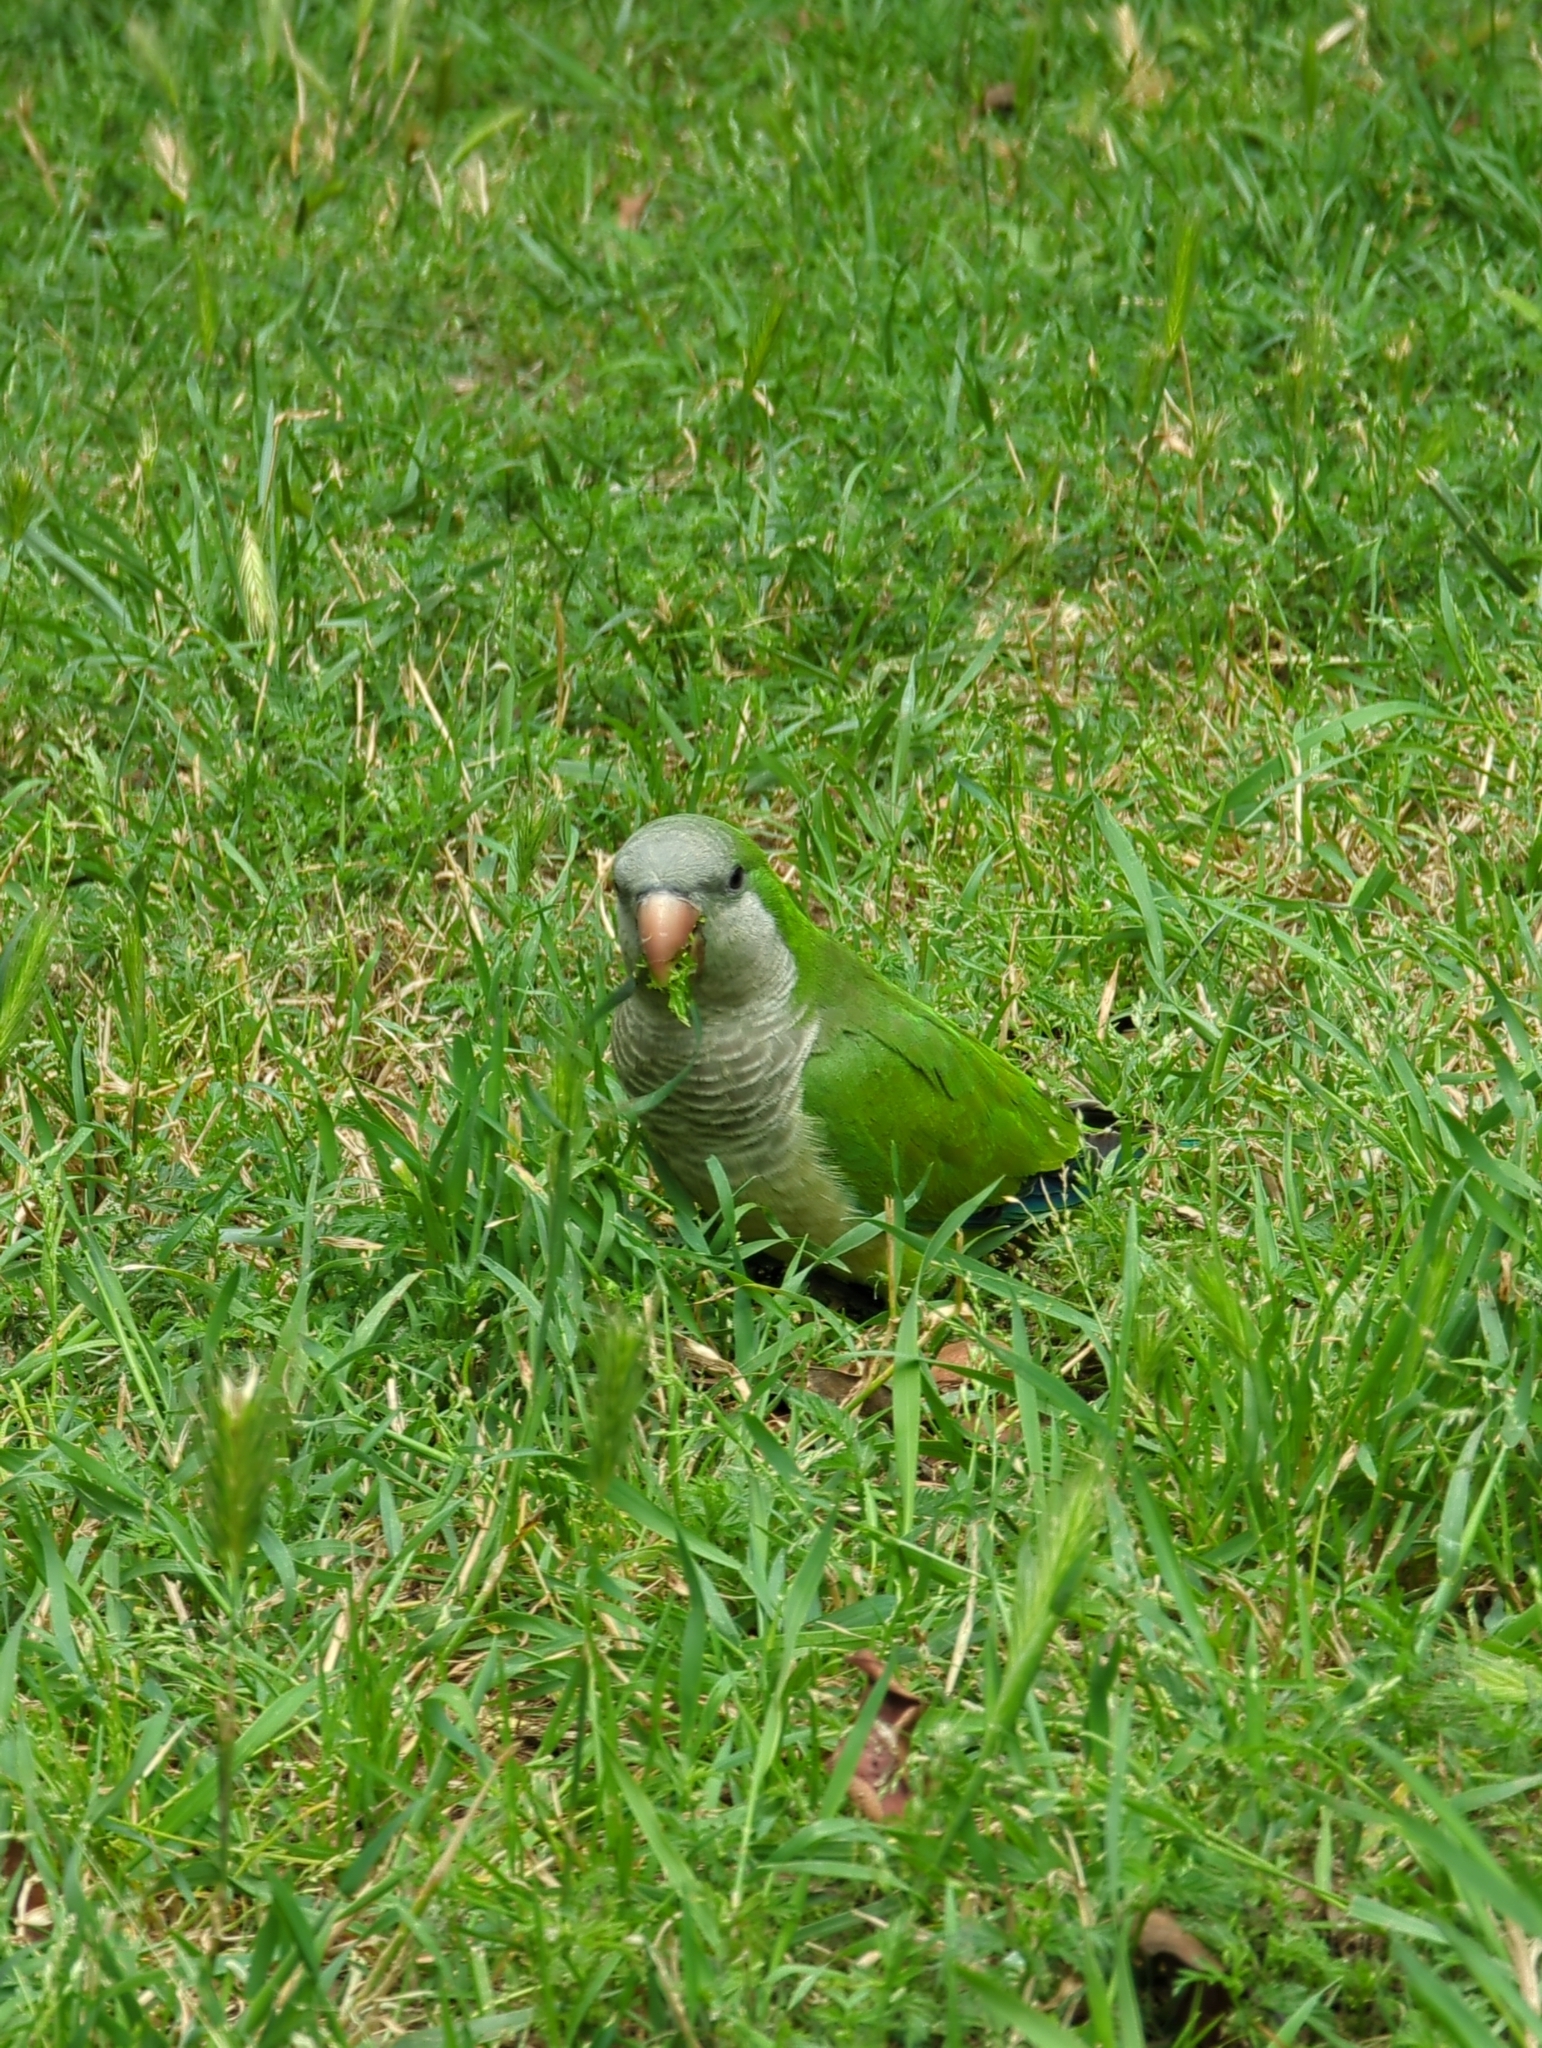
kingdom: Animalia
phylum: Chordata
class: Aves
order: Psittaciformes
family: Psittacidae
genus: Myiopsitta
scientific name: Myiopsitta monachus
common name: Monk parakeet
